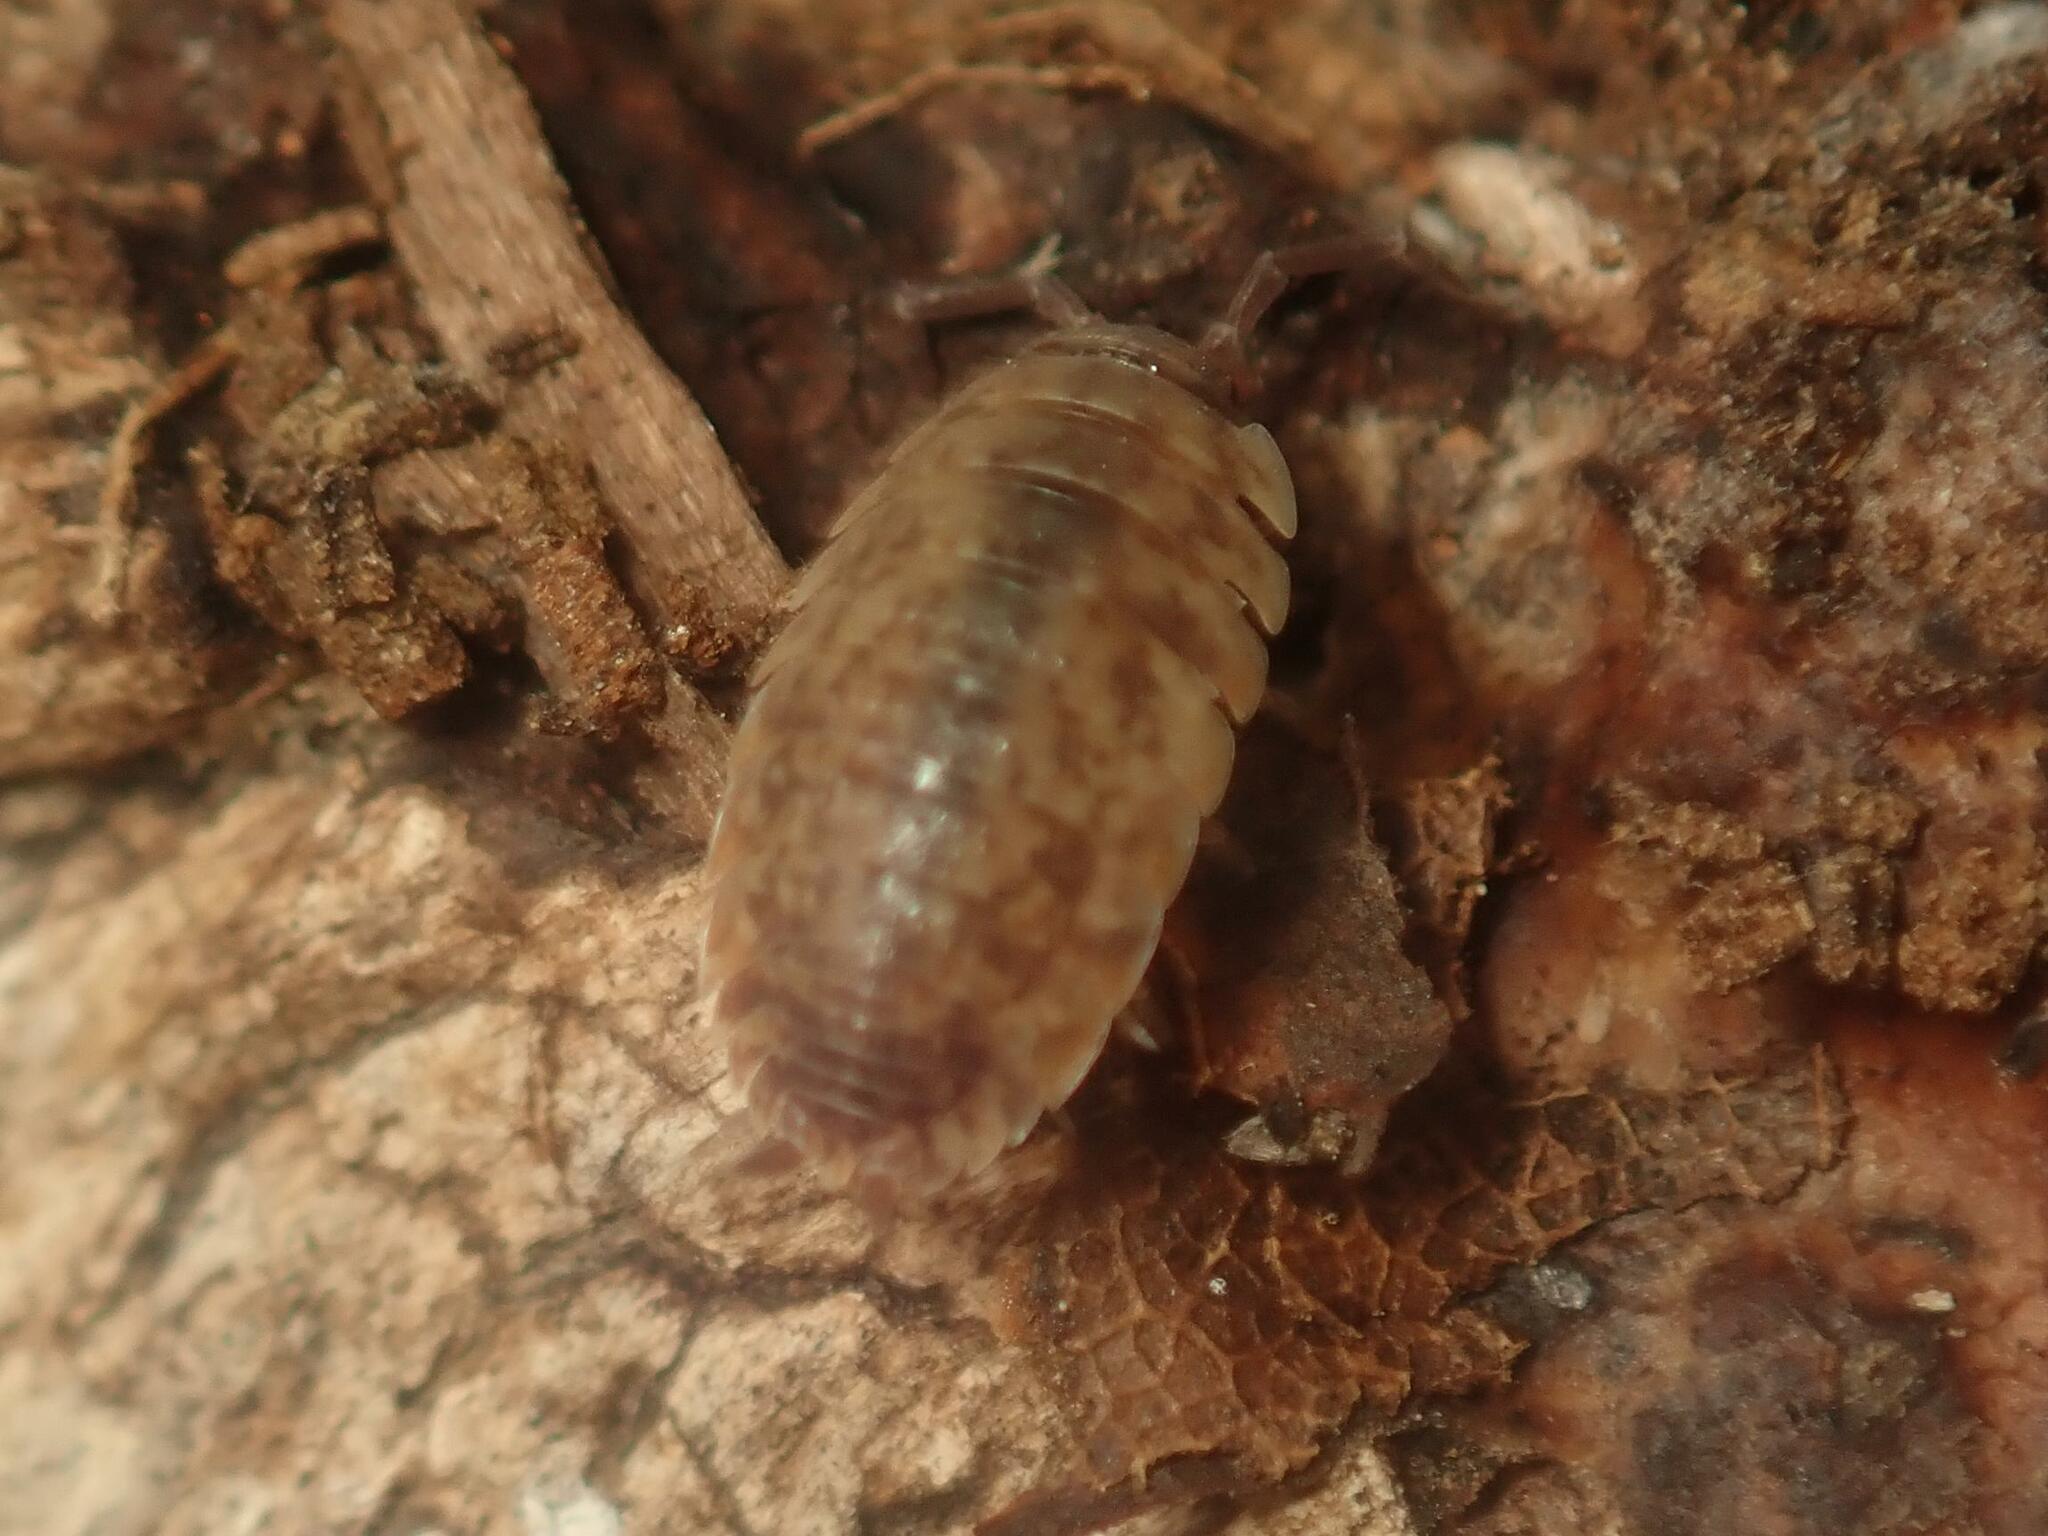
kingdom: Animalia
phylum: Arthropoda
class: Malacostraca
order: Isopoda
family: Porcellionidae
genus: Porcellio
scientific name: Porcellio scaber
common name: Common rough woodlouse
